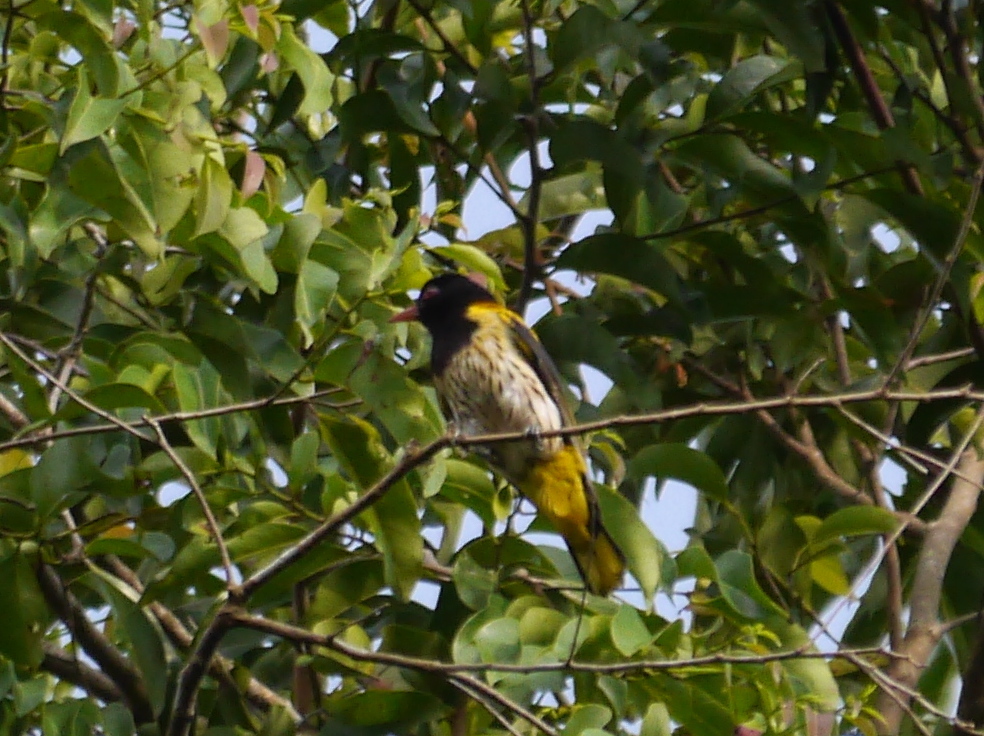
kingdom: Animalia
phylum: Chordata
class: Aves
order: Passeriformes
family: Oriolidae
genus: Oriolus
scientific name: Oriolus xanthonotus
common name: Dark-throated oriole
